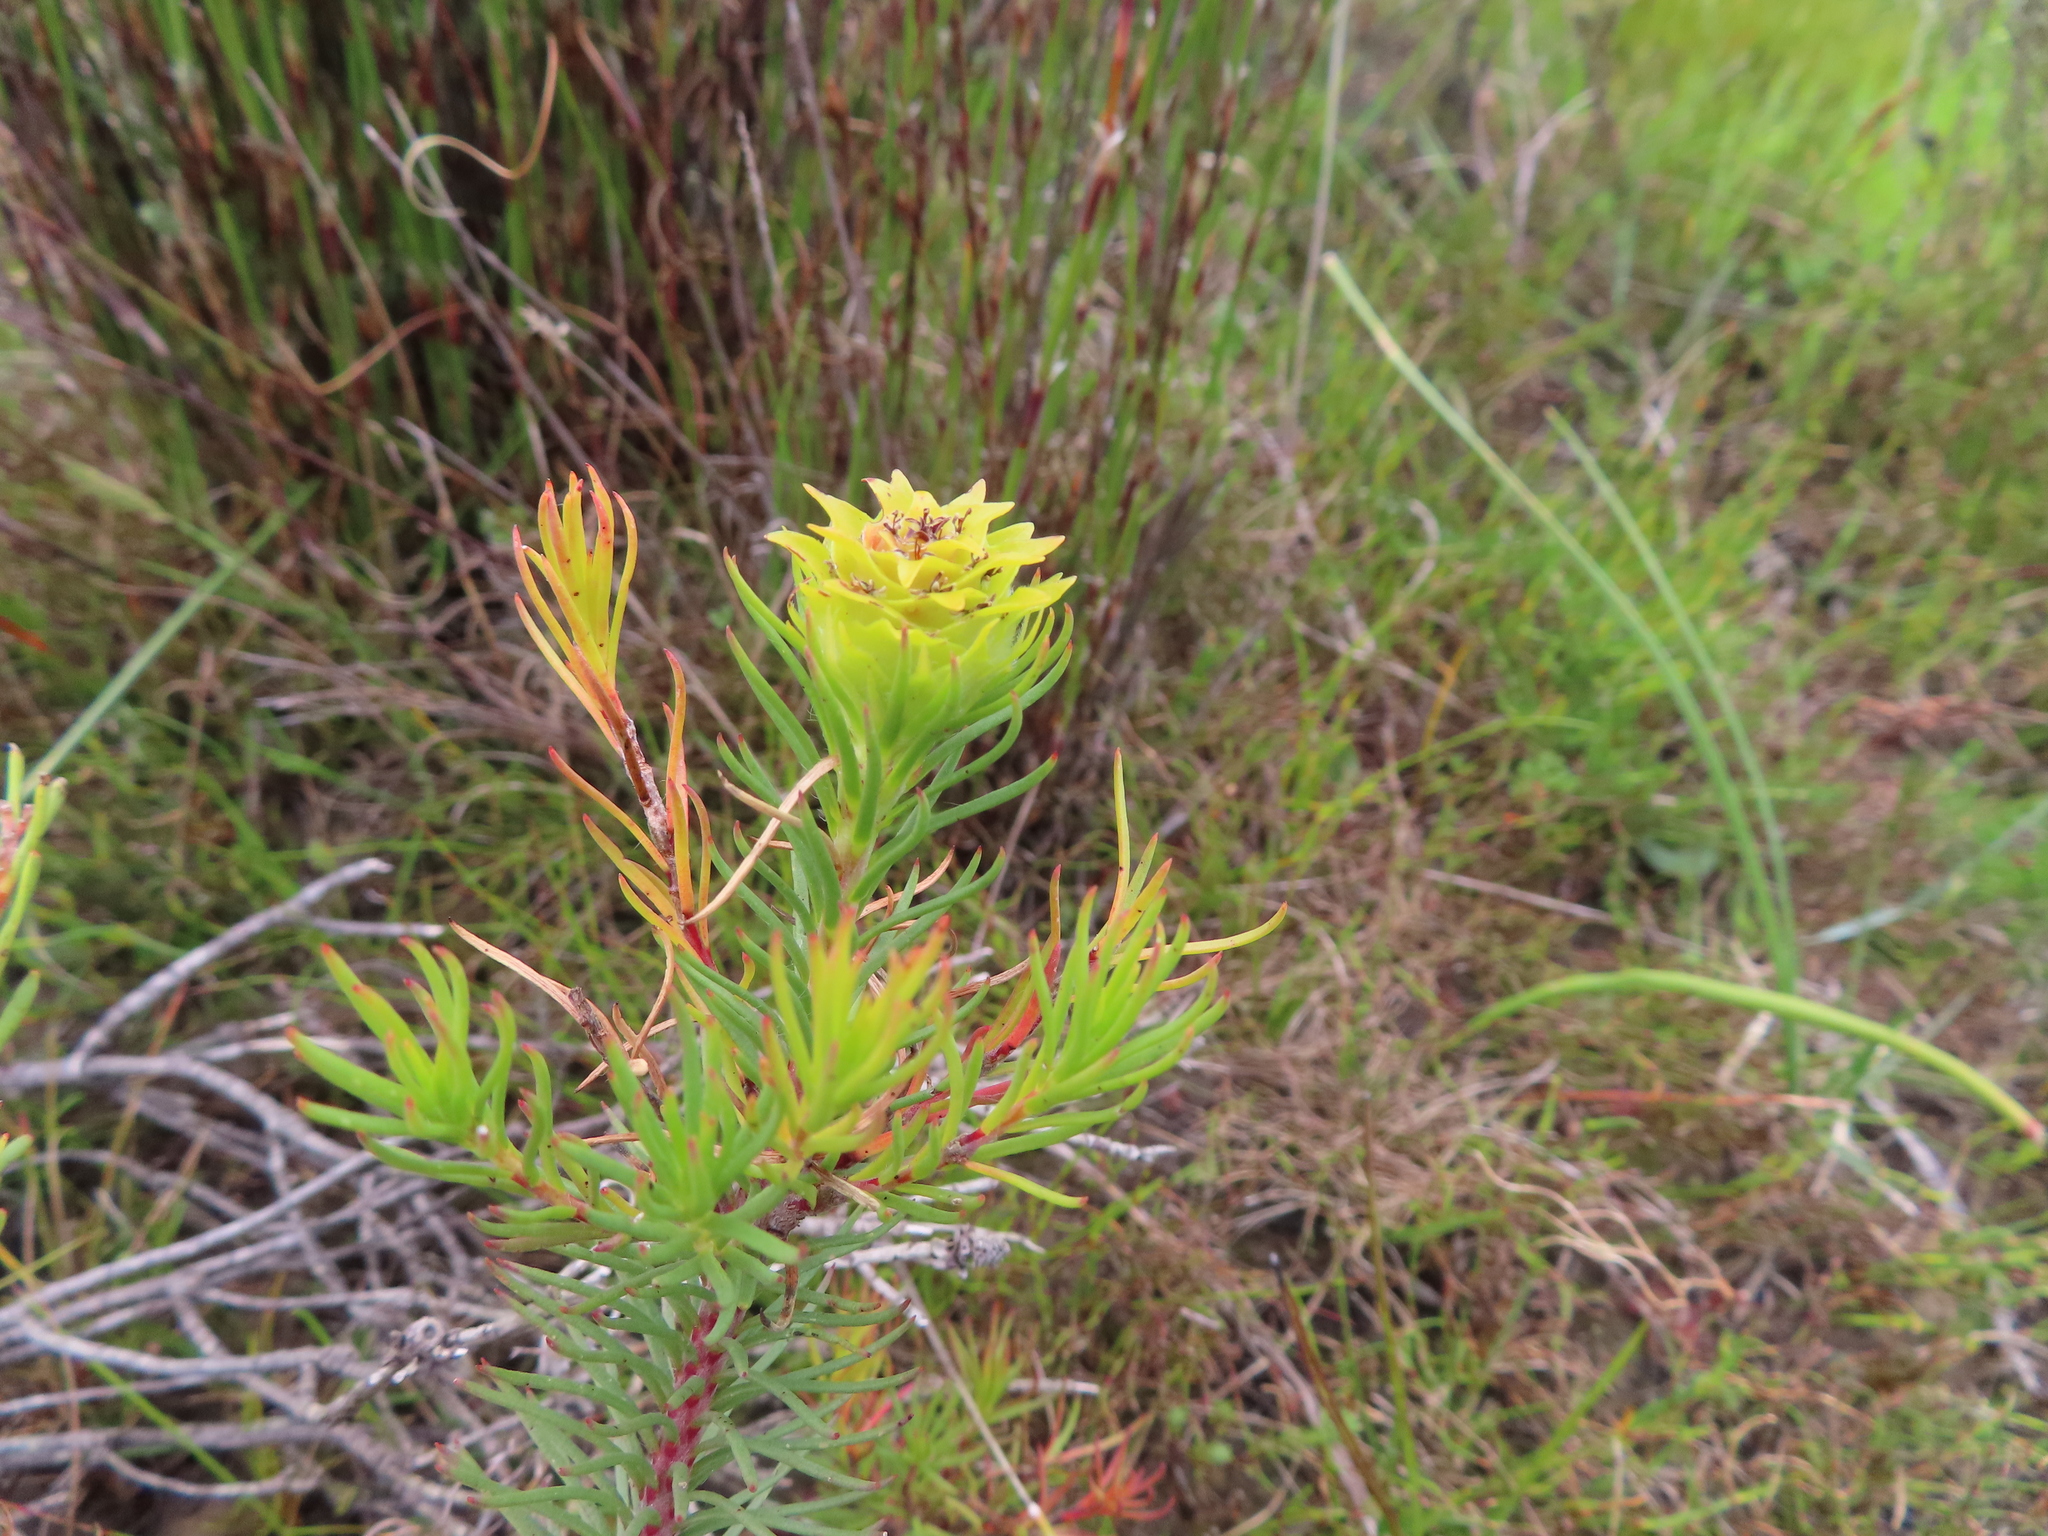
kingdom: Plantae
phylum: Tracheophyta
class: Magnoliopsida
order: Proteales
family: Proteaceae
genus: Leucadendron
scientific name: Leucadendron laxum
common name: Bredasdorp conebush
